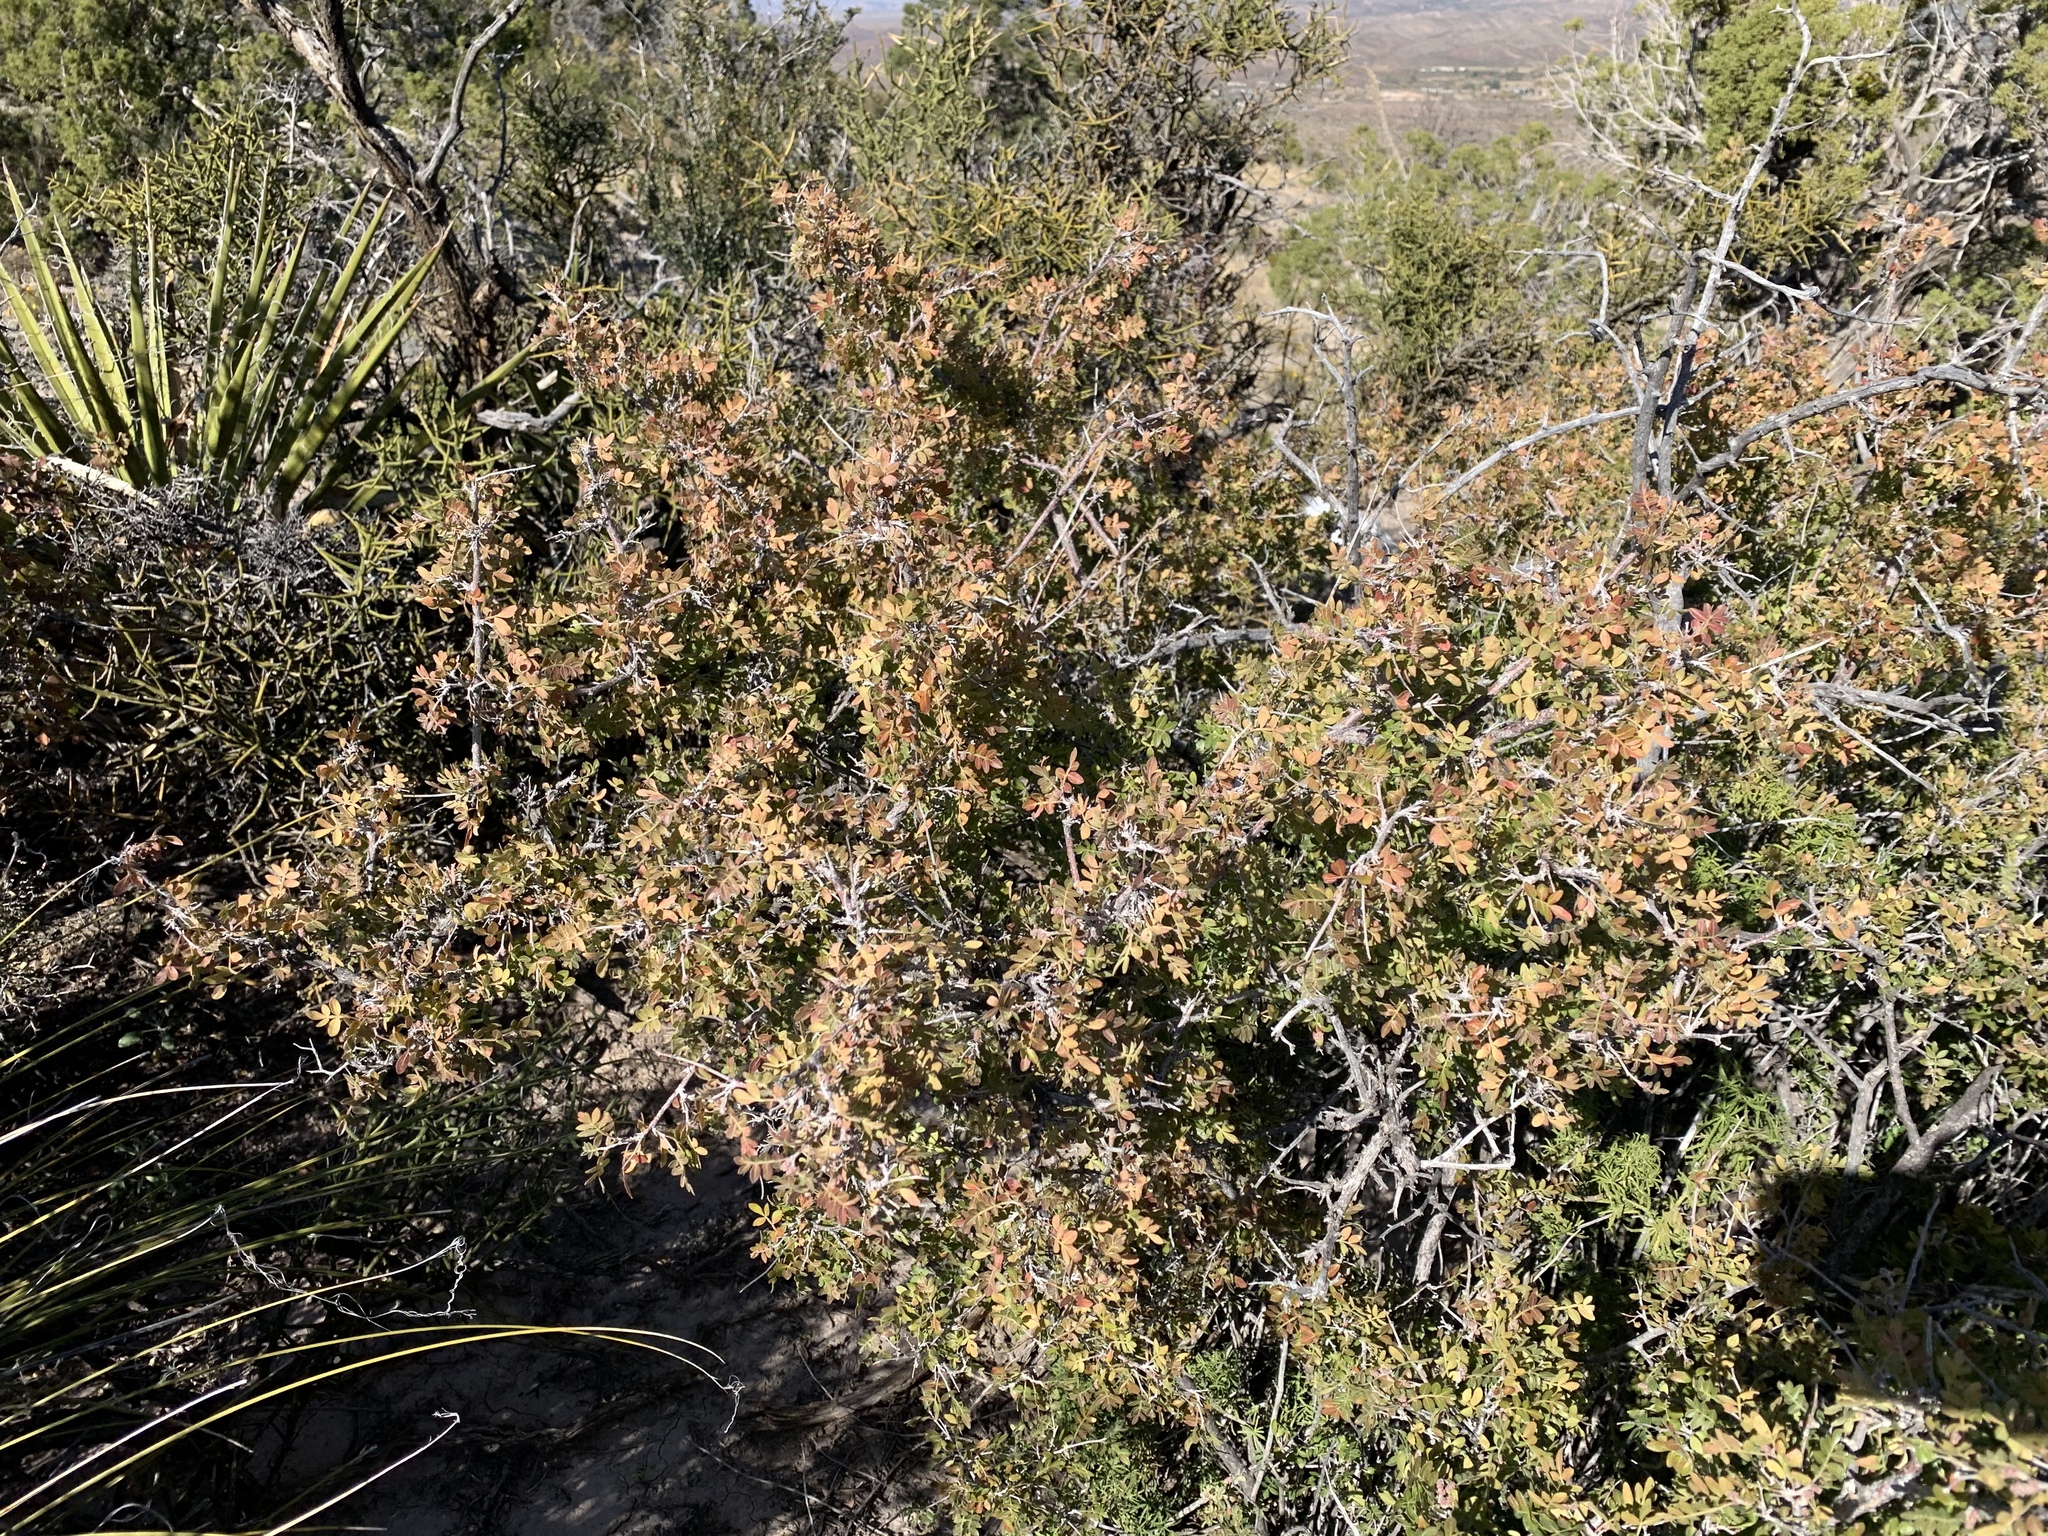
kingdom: Plantae
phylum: Tracheophyta
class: Magnoliopsida
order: Sapindales
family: Anacardiaceae
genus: Rhus
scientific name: Rhus microphylla
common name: Desert sumac
